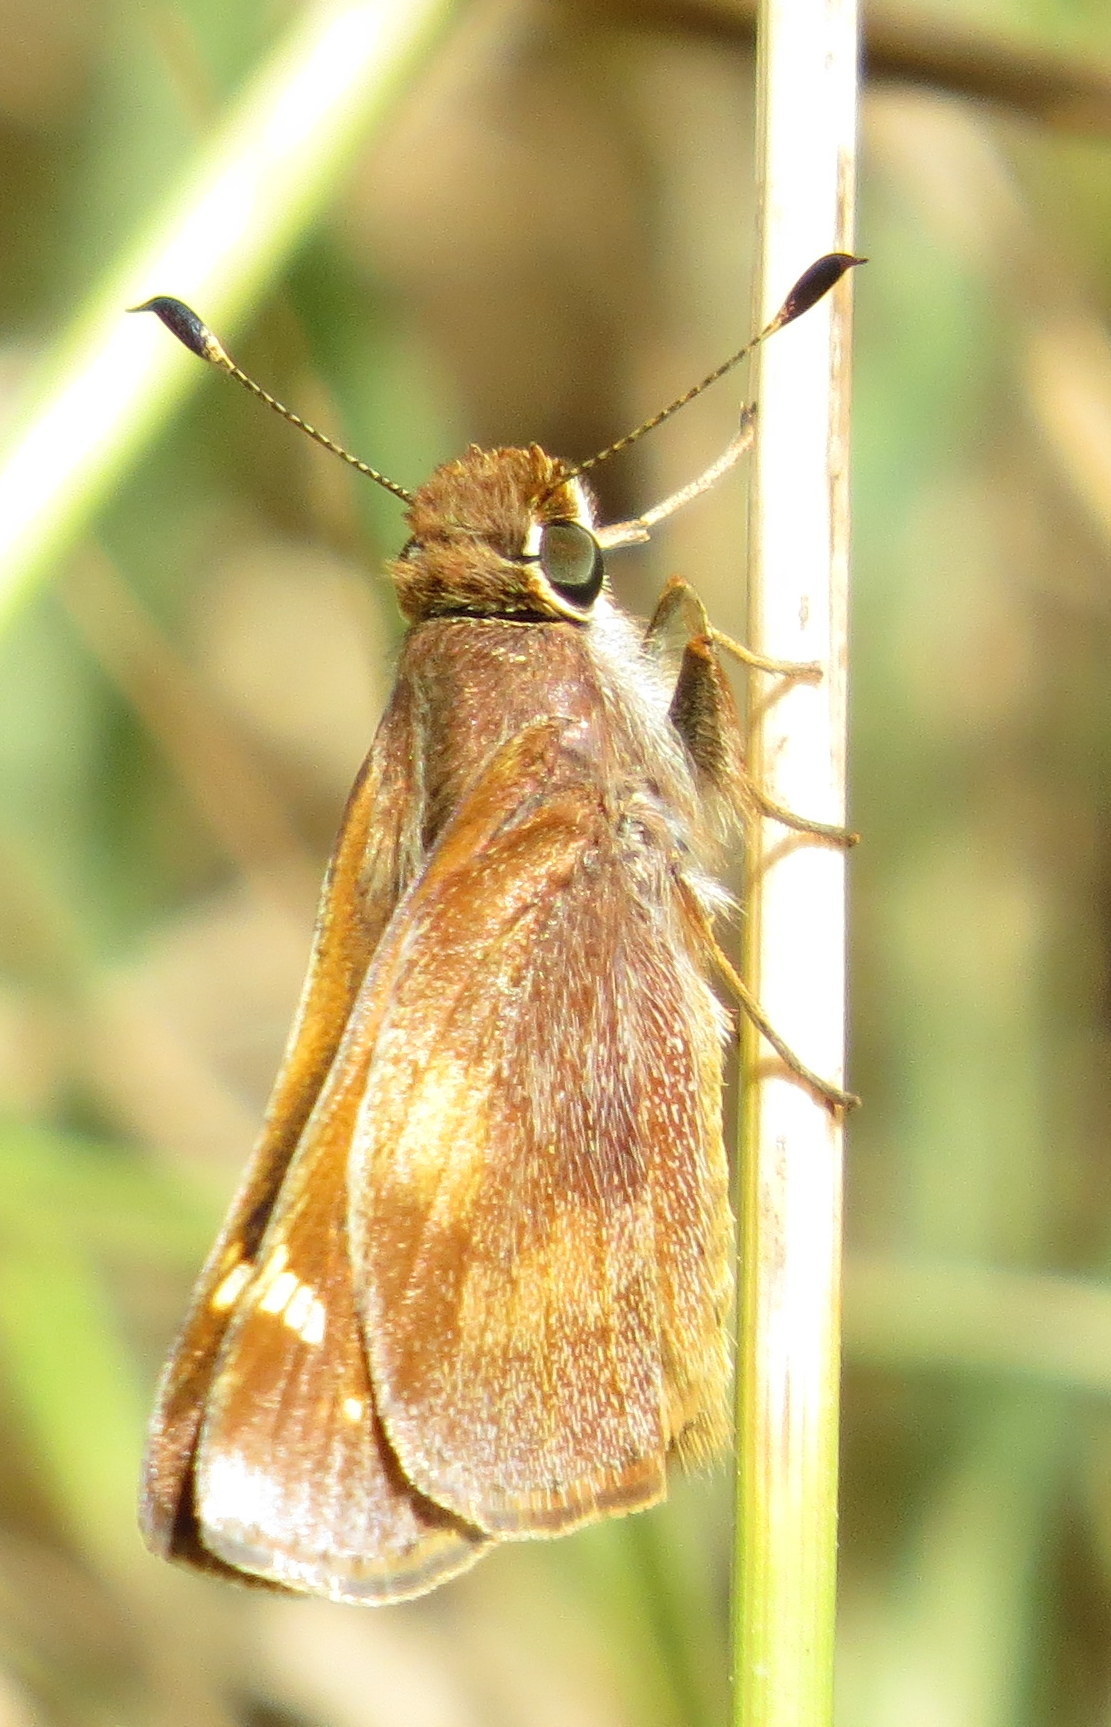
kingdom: Animalia
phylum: Arthropoda
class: Insecta
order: Lepidoptera
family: Hesperiidae
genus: Lon
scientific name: Lon melane
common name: Umber skipper
